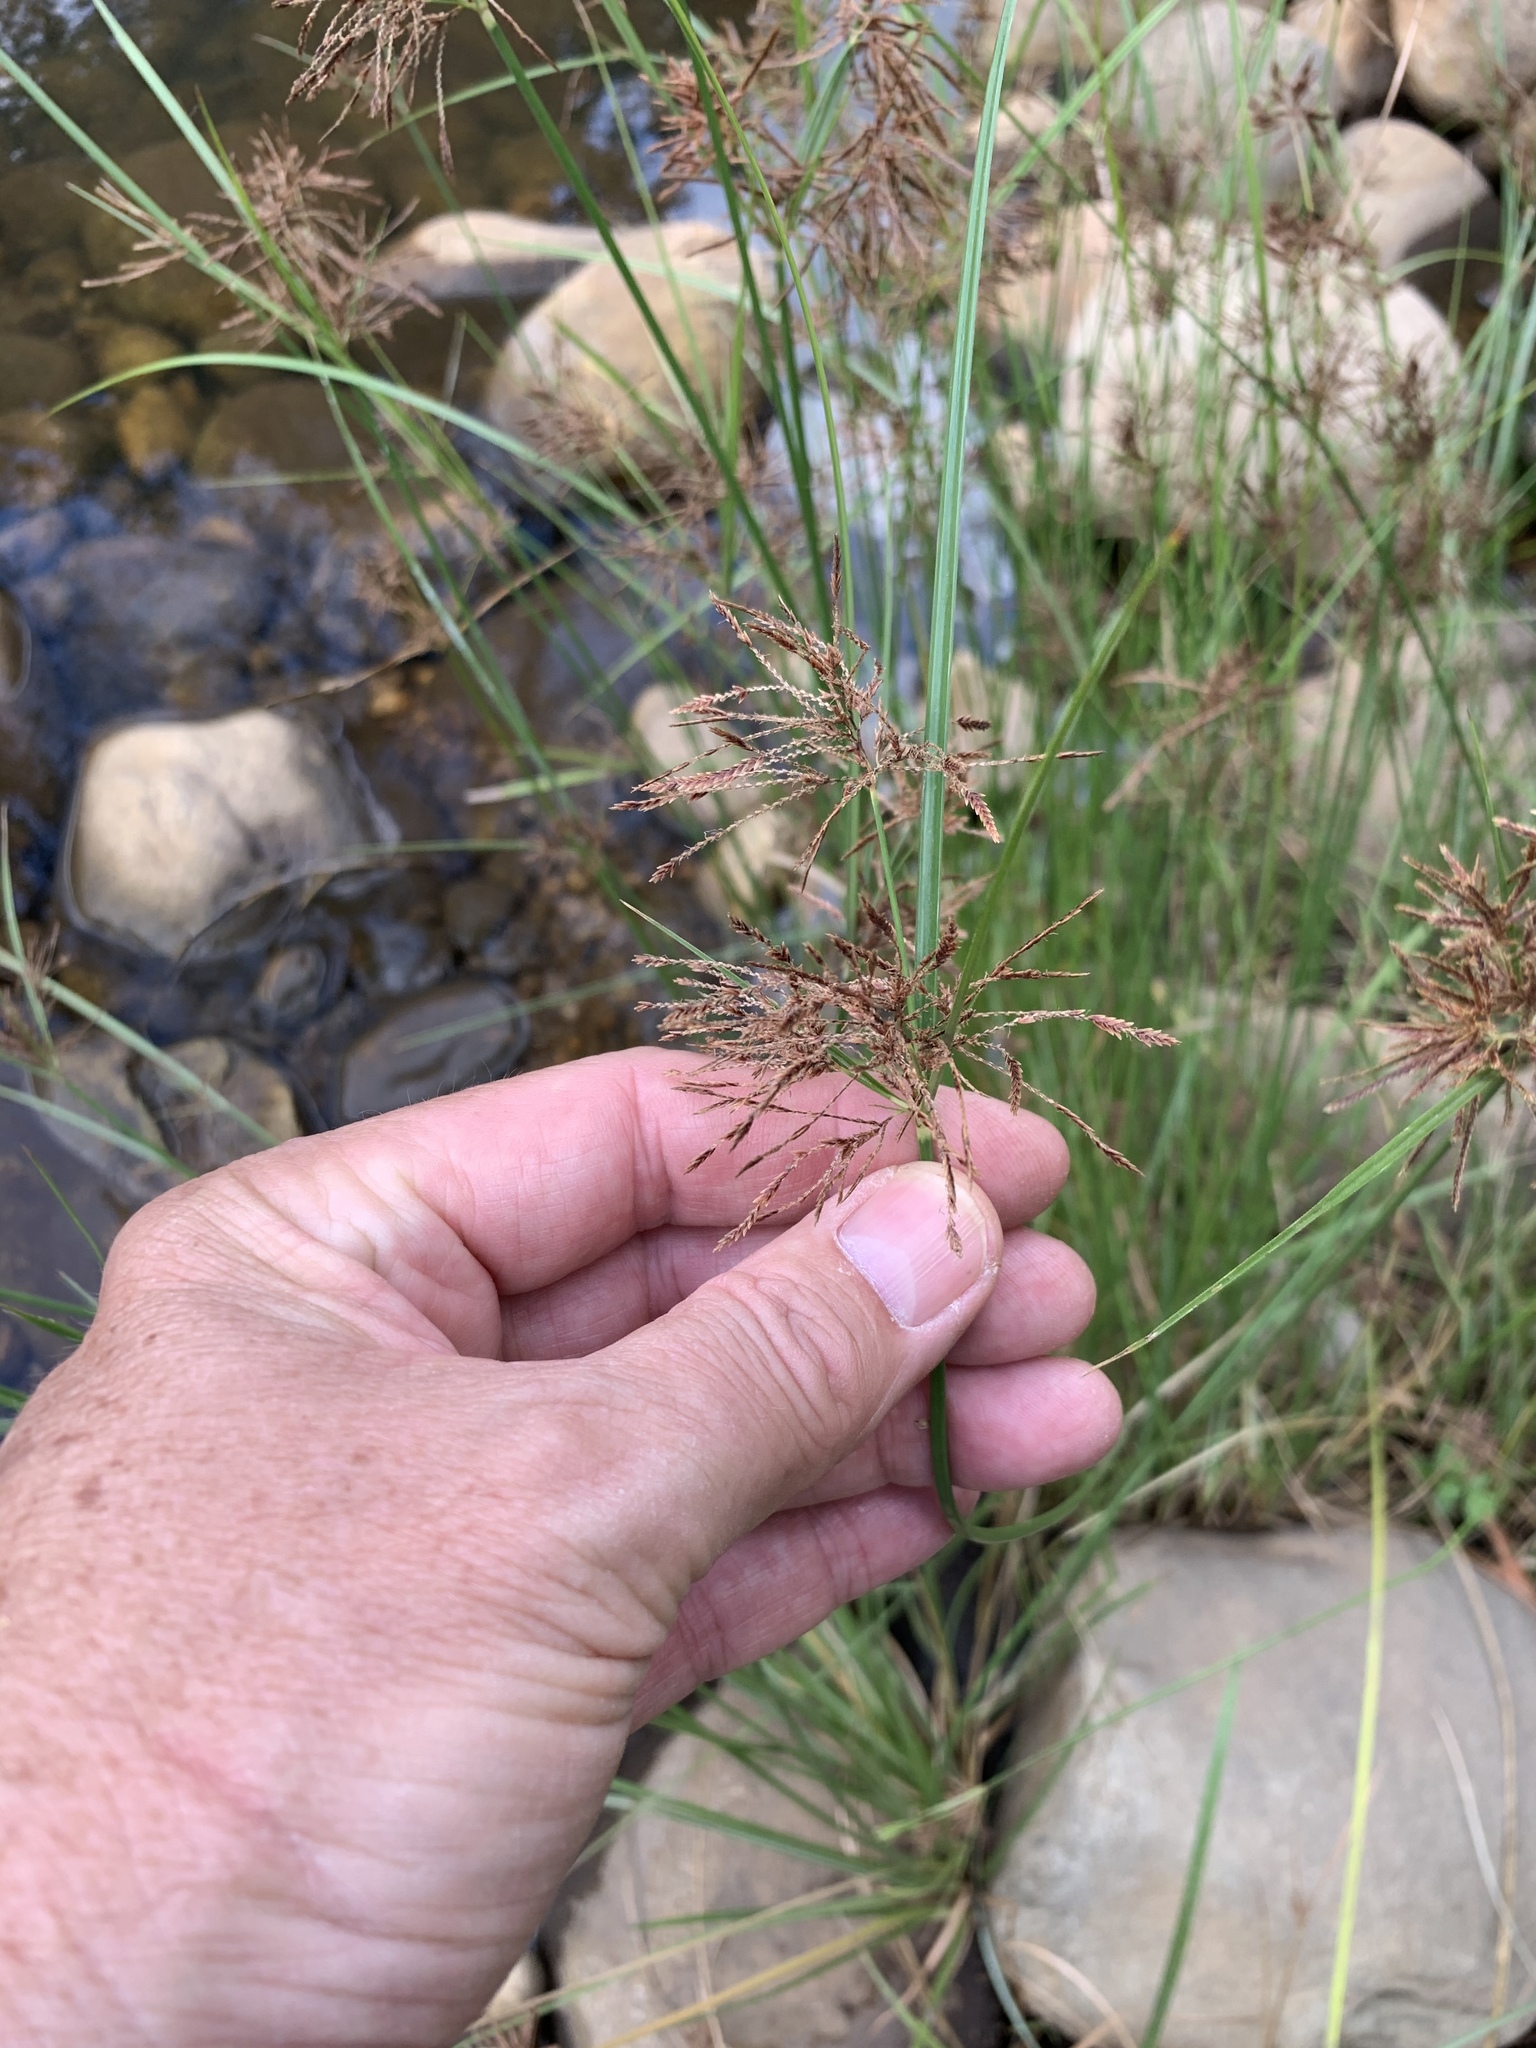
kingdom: Plantae
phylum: Tracheophyta
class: Liliopsida
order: Poales
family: Cyperaceae
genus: Cyperus
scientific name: Cyperus longus
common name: Galingale
